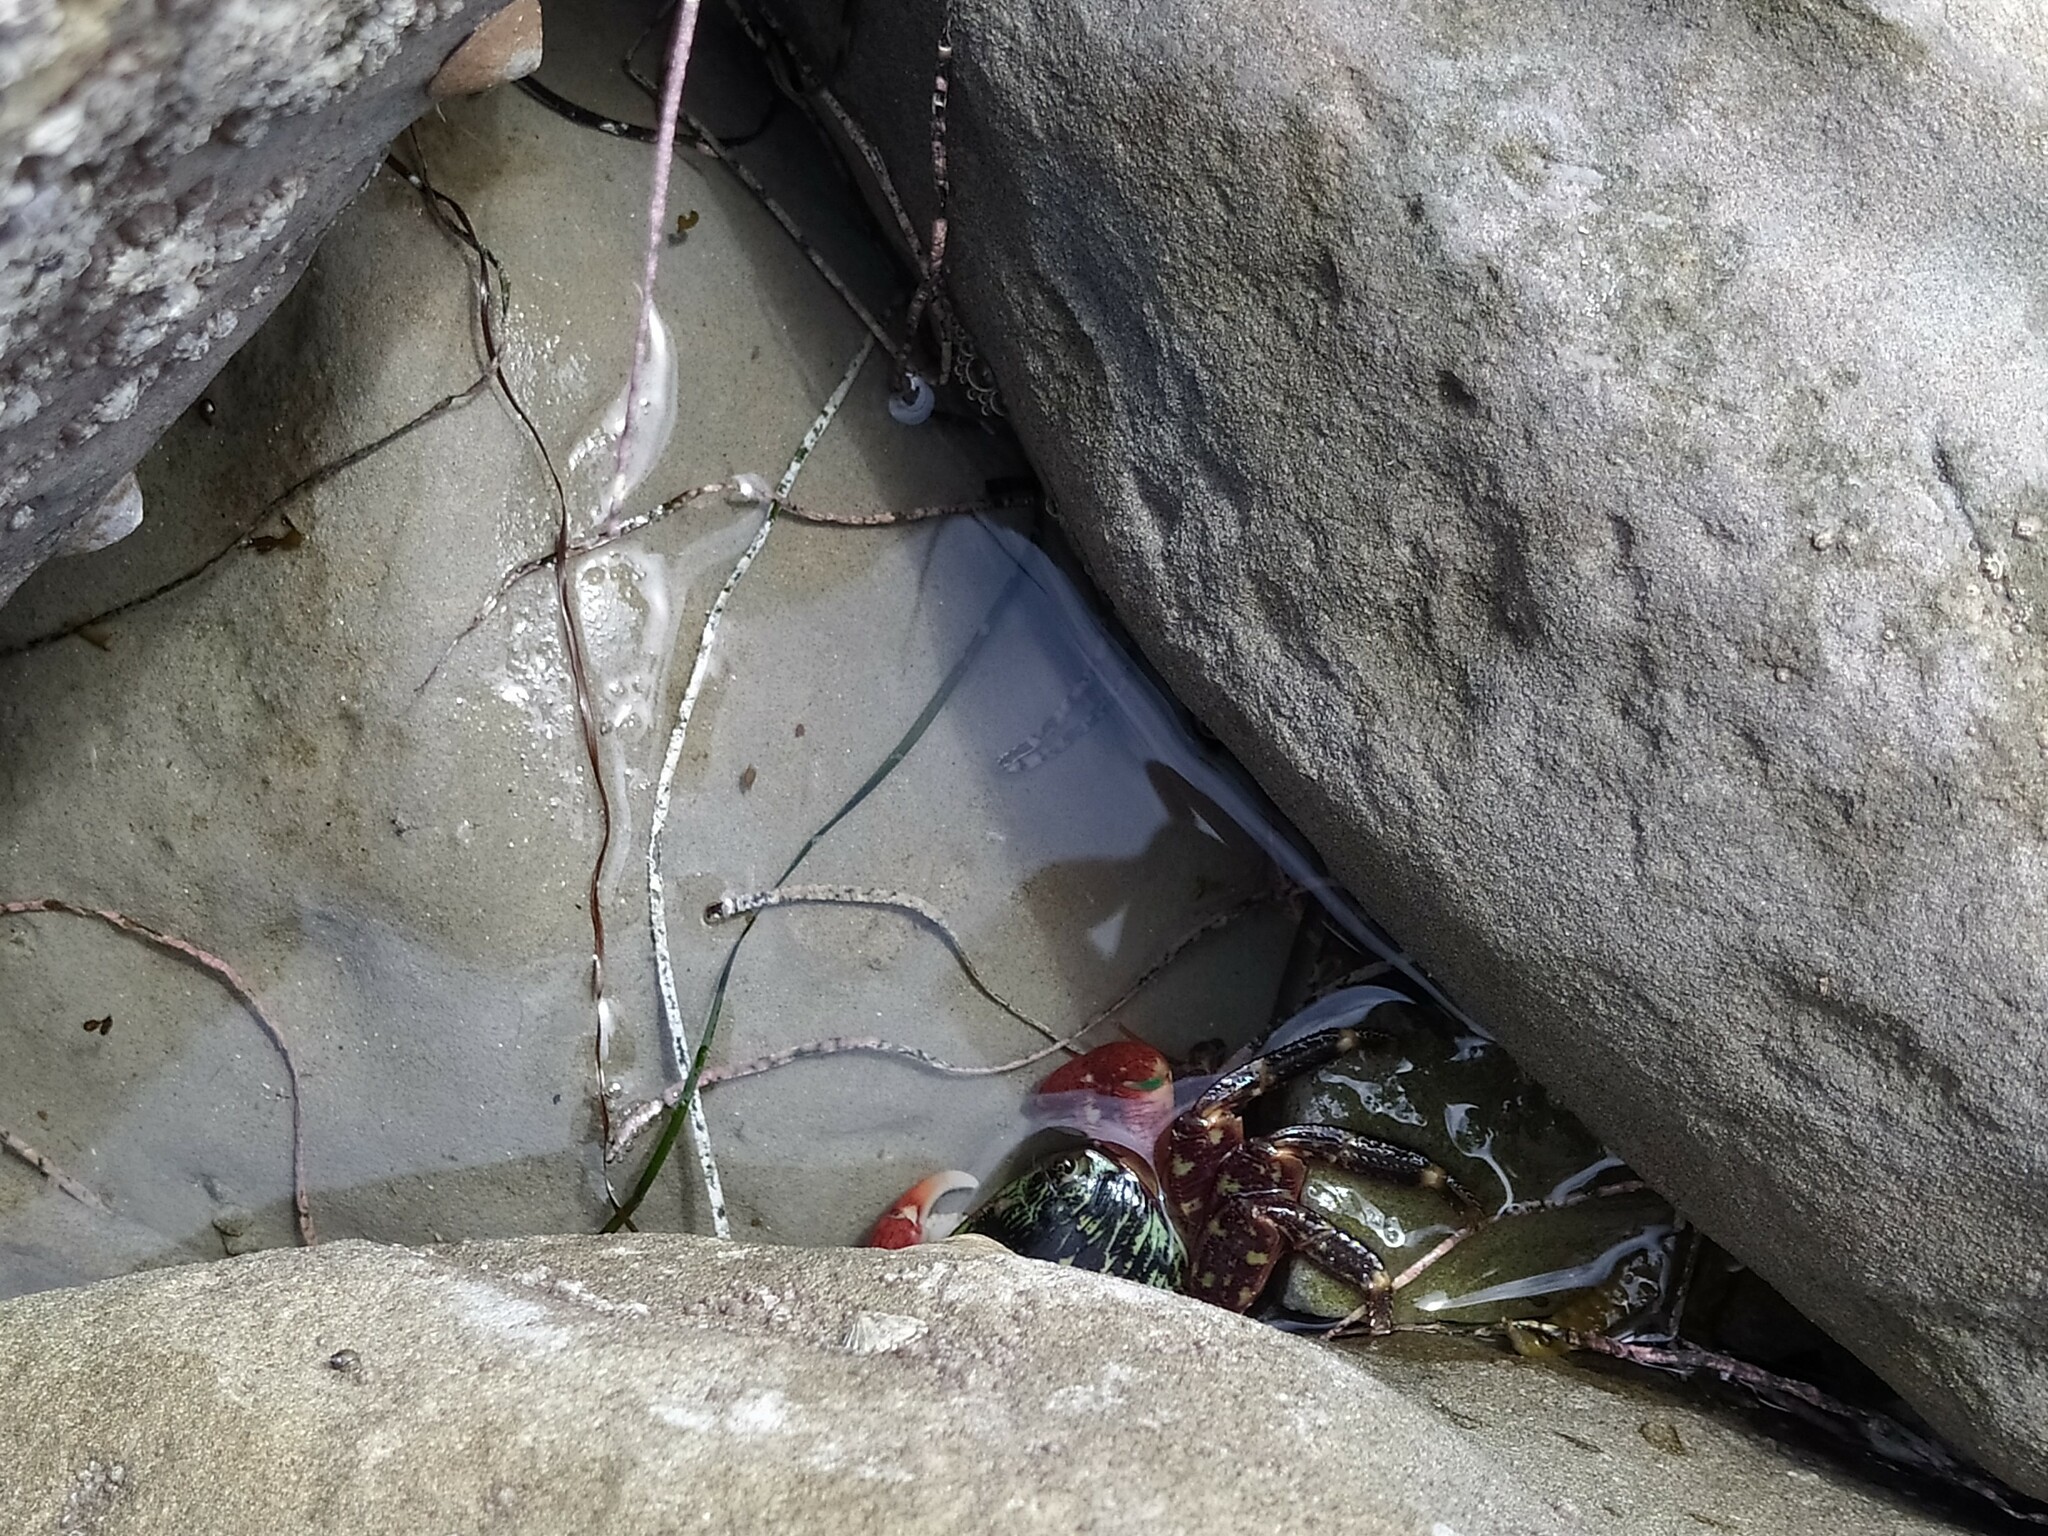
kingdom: Animalia
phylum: Arthropoda
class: Malacostraca
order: Decapoda
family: Grapsidae
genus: Pachygrapsus
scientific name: Pachygrapsus crassipes
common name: Striped shore crab
